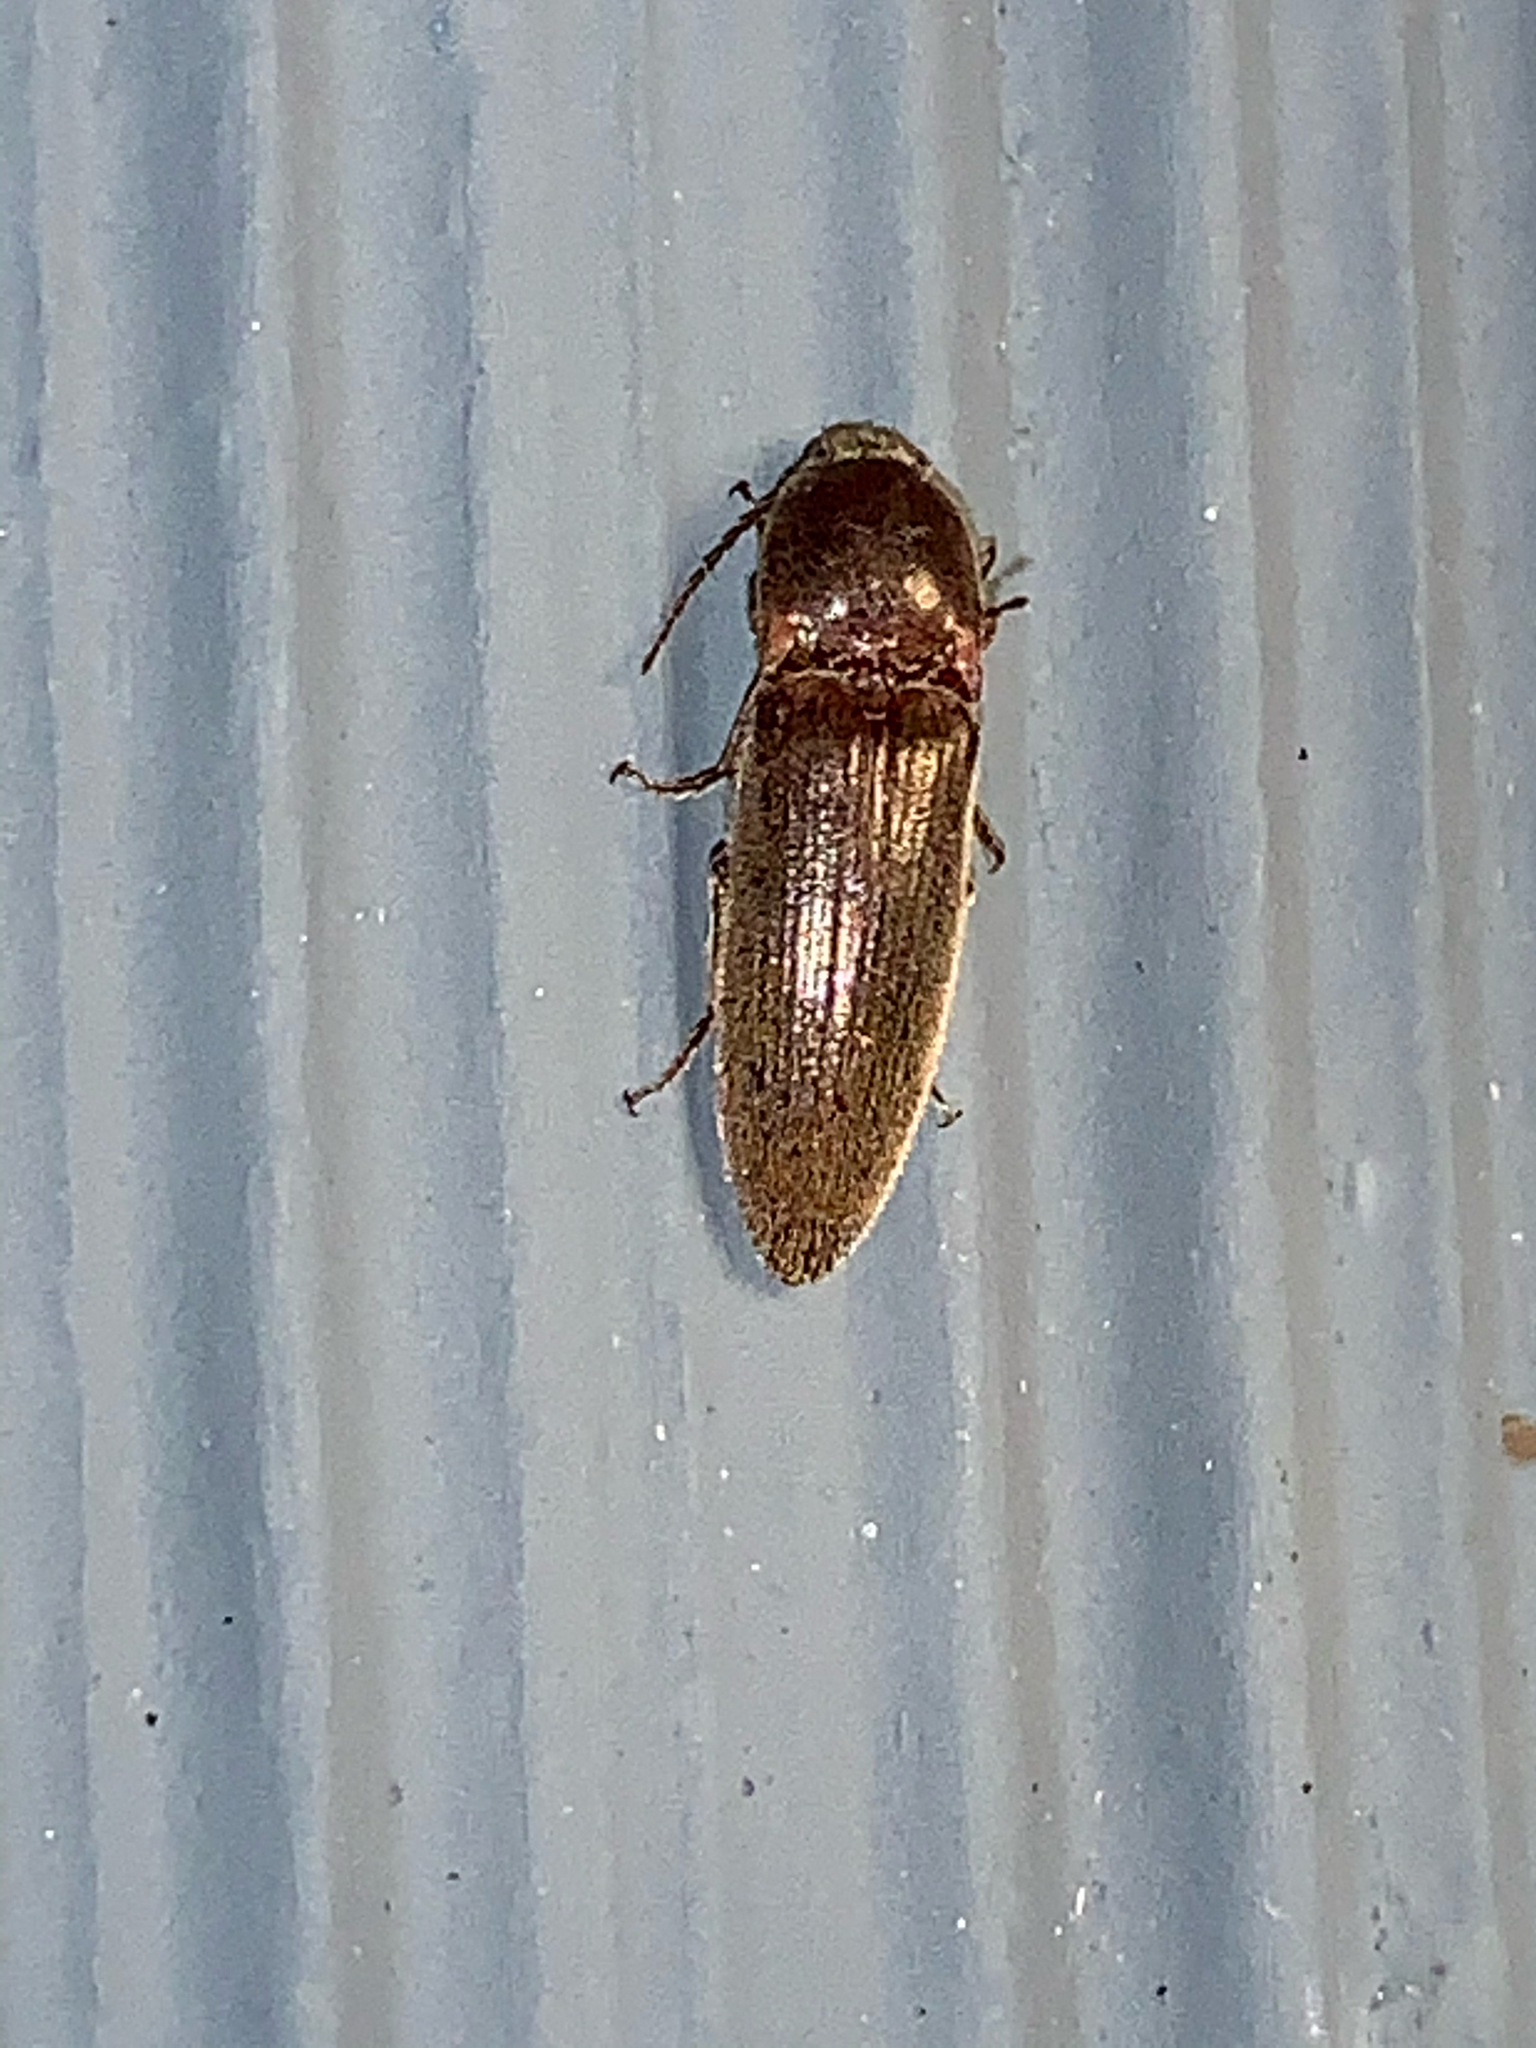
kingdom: Animalia
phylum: Arthropoda
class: Insecta
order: Coleoptera
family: Elateridae
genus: Melanotus
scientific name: Melanotus
